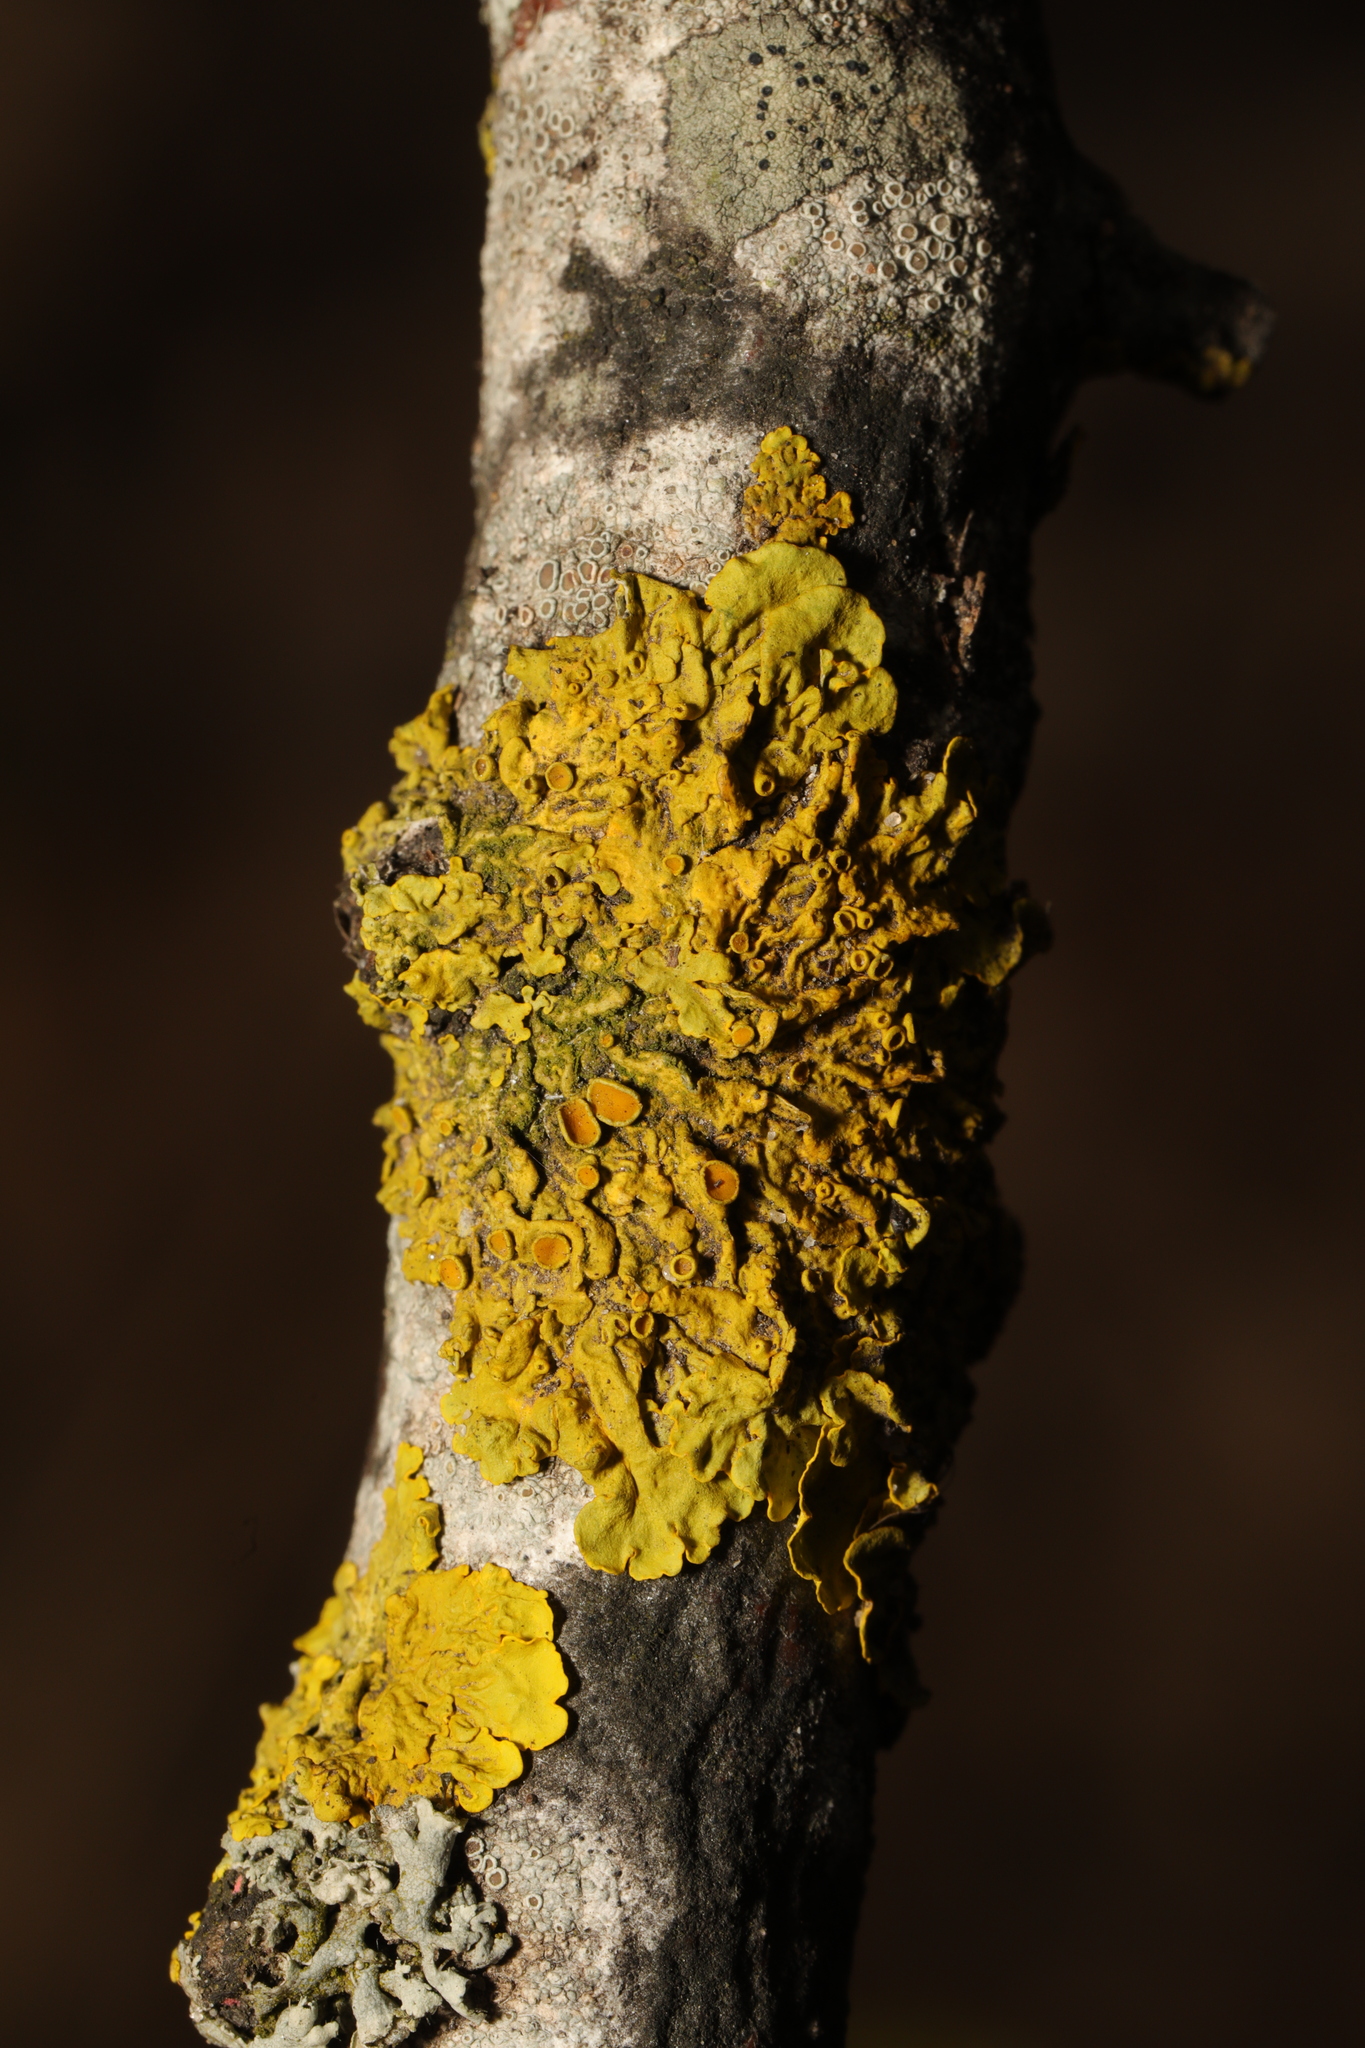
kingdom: Fungi
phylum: Ascomycota
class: Lecanoromycetes
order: Teloschistales
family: Teloschistaceae
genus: Xanthoria
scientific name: Xanthoria parietina
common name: Common orange lichen
